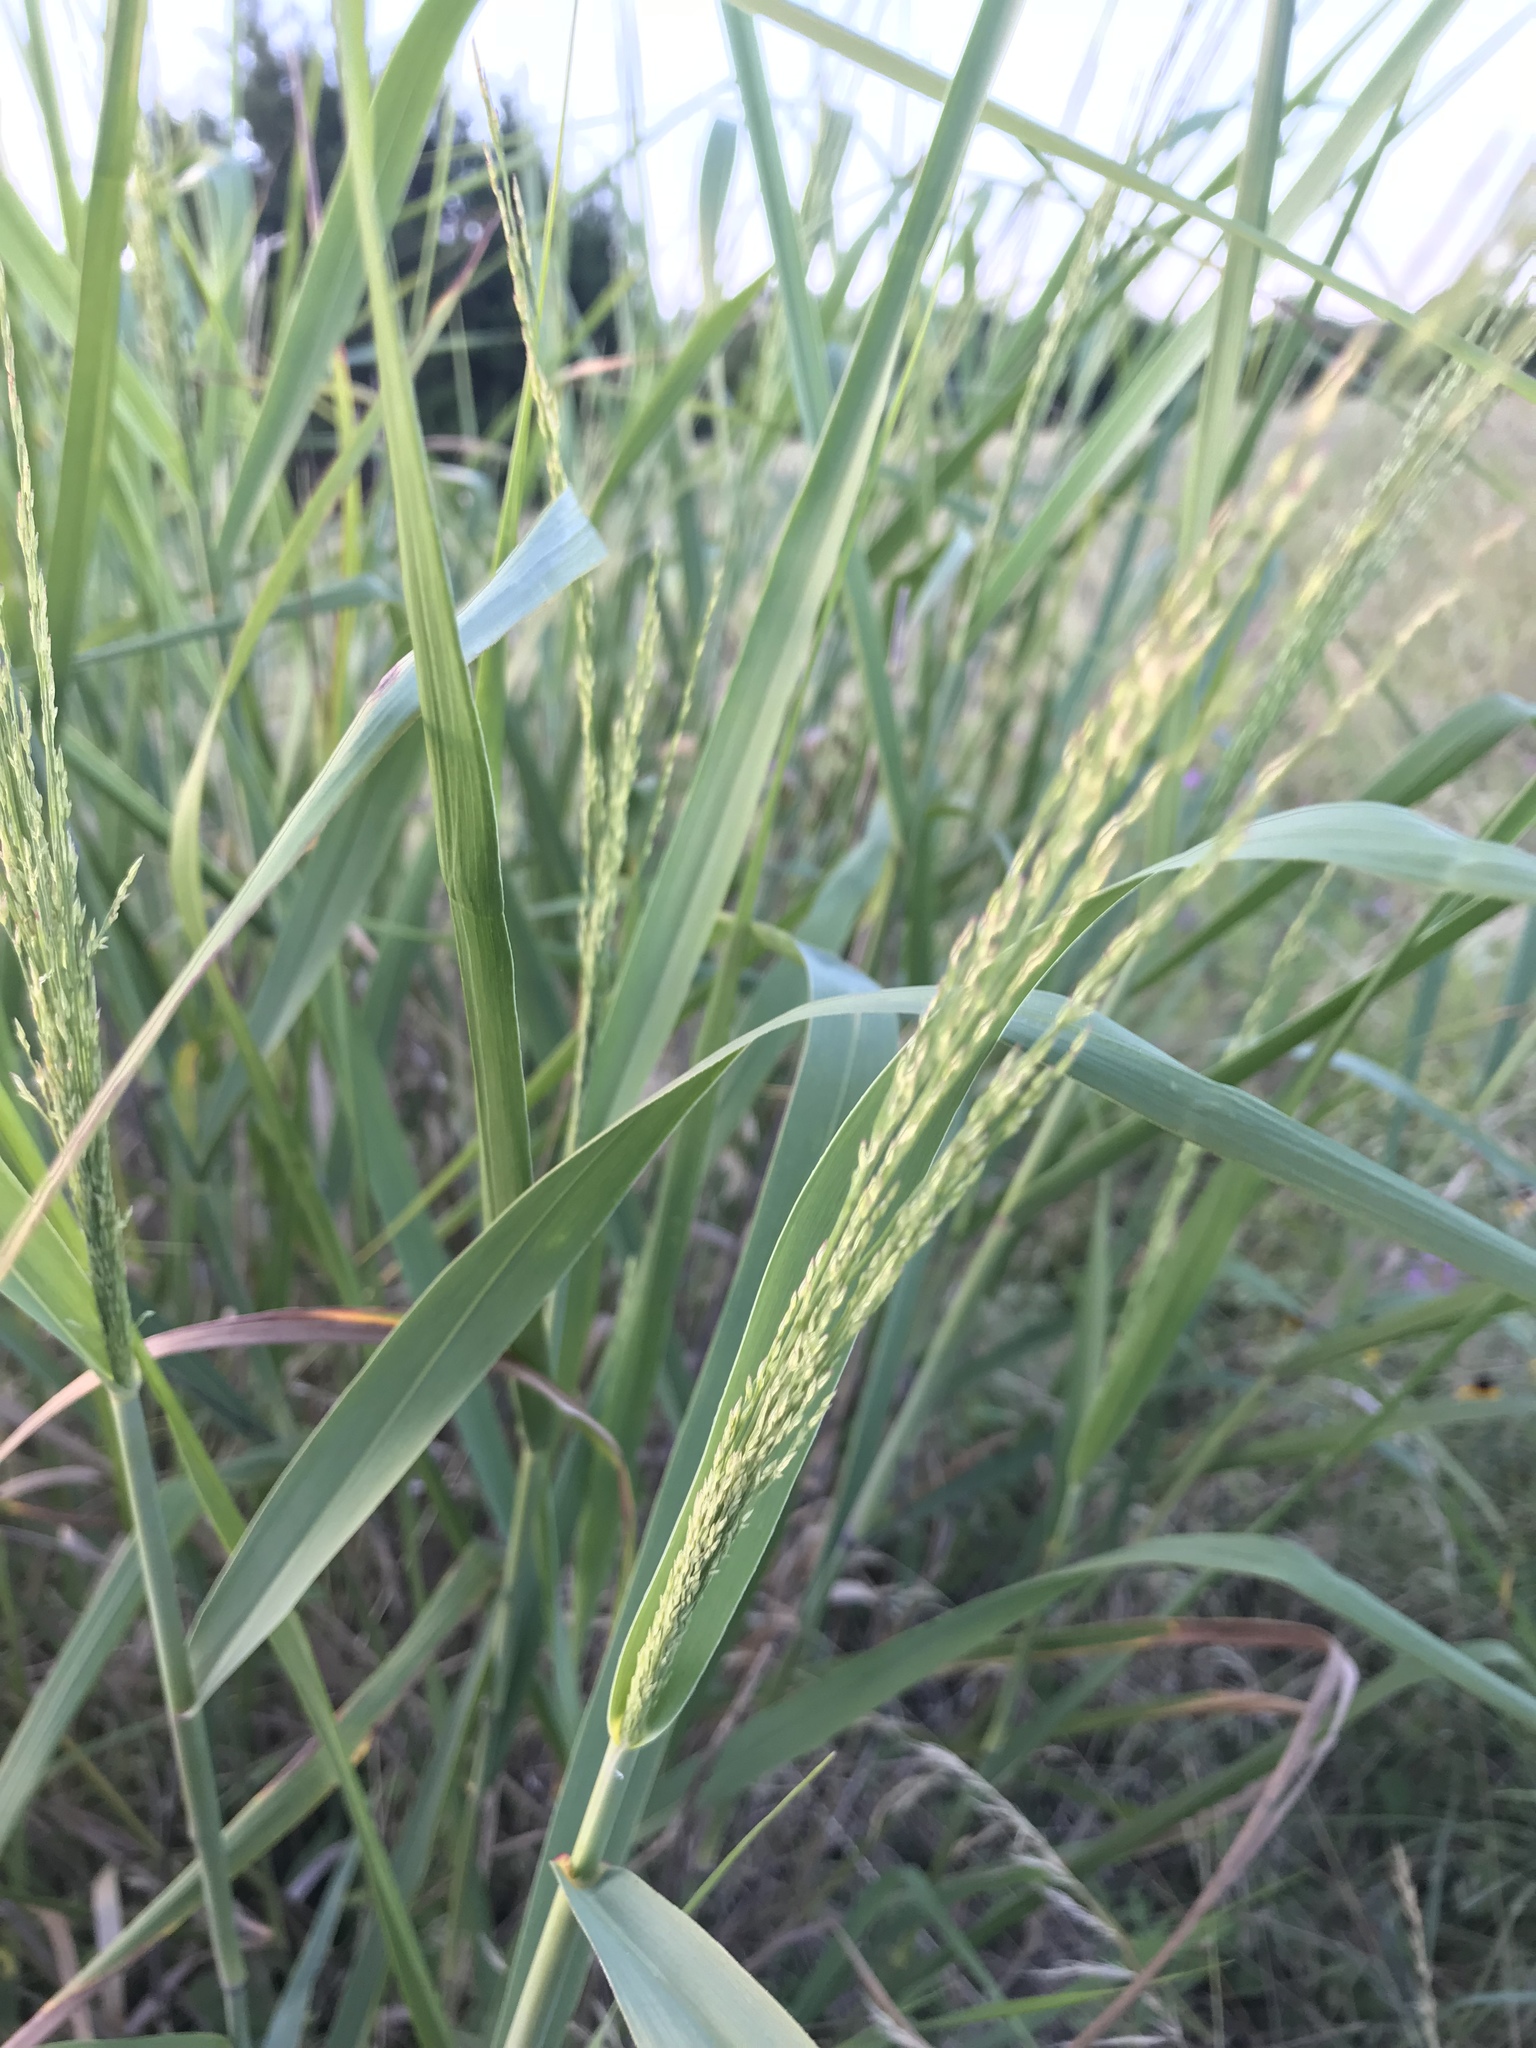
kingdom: Plantae
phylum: Tracheophyta
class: Liliopsida
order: Poales
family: Poaceae
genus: Panicum
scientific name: Panicum virgatum
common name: Switchgrass
